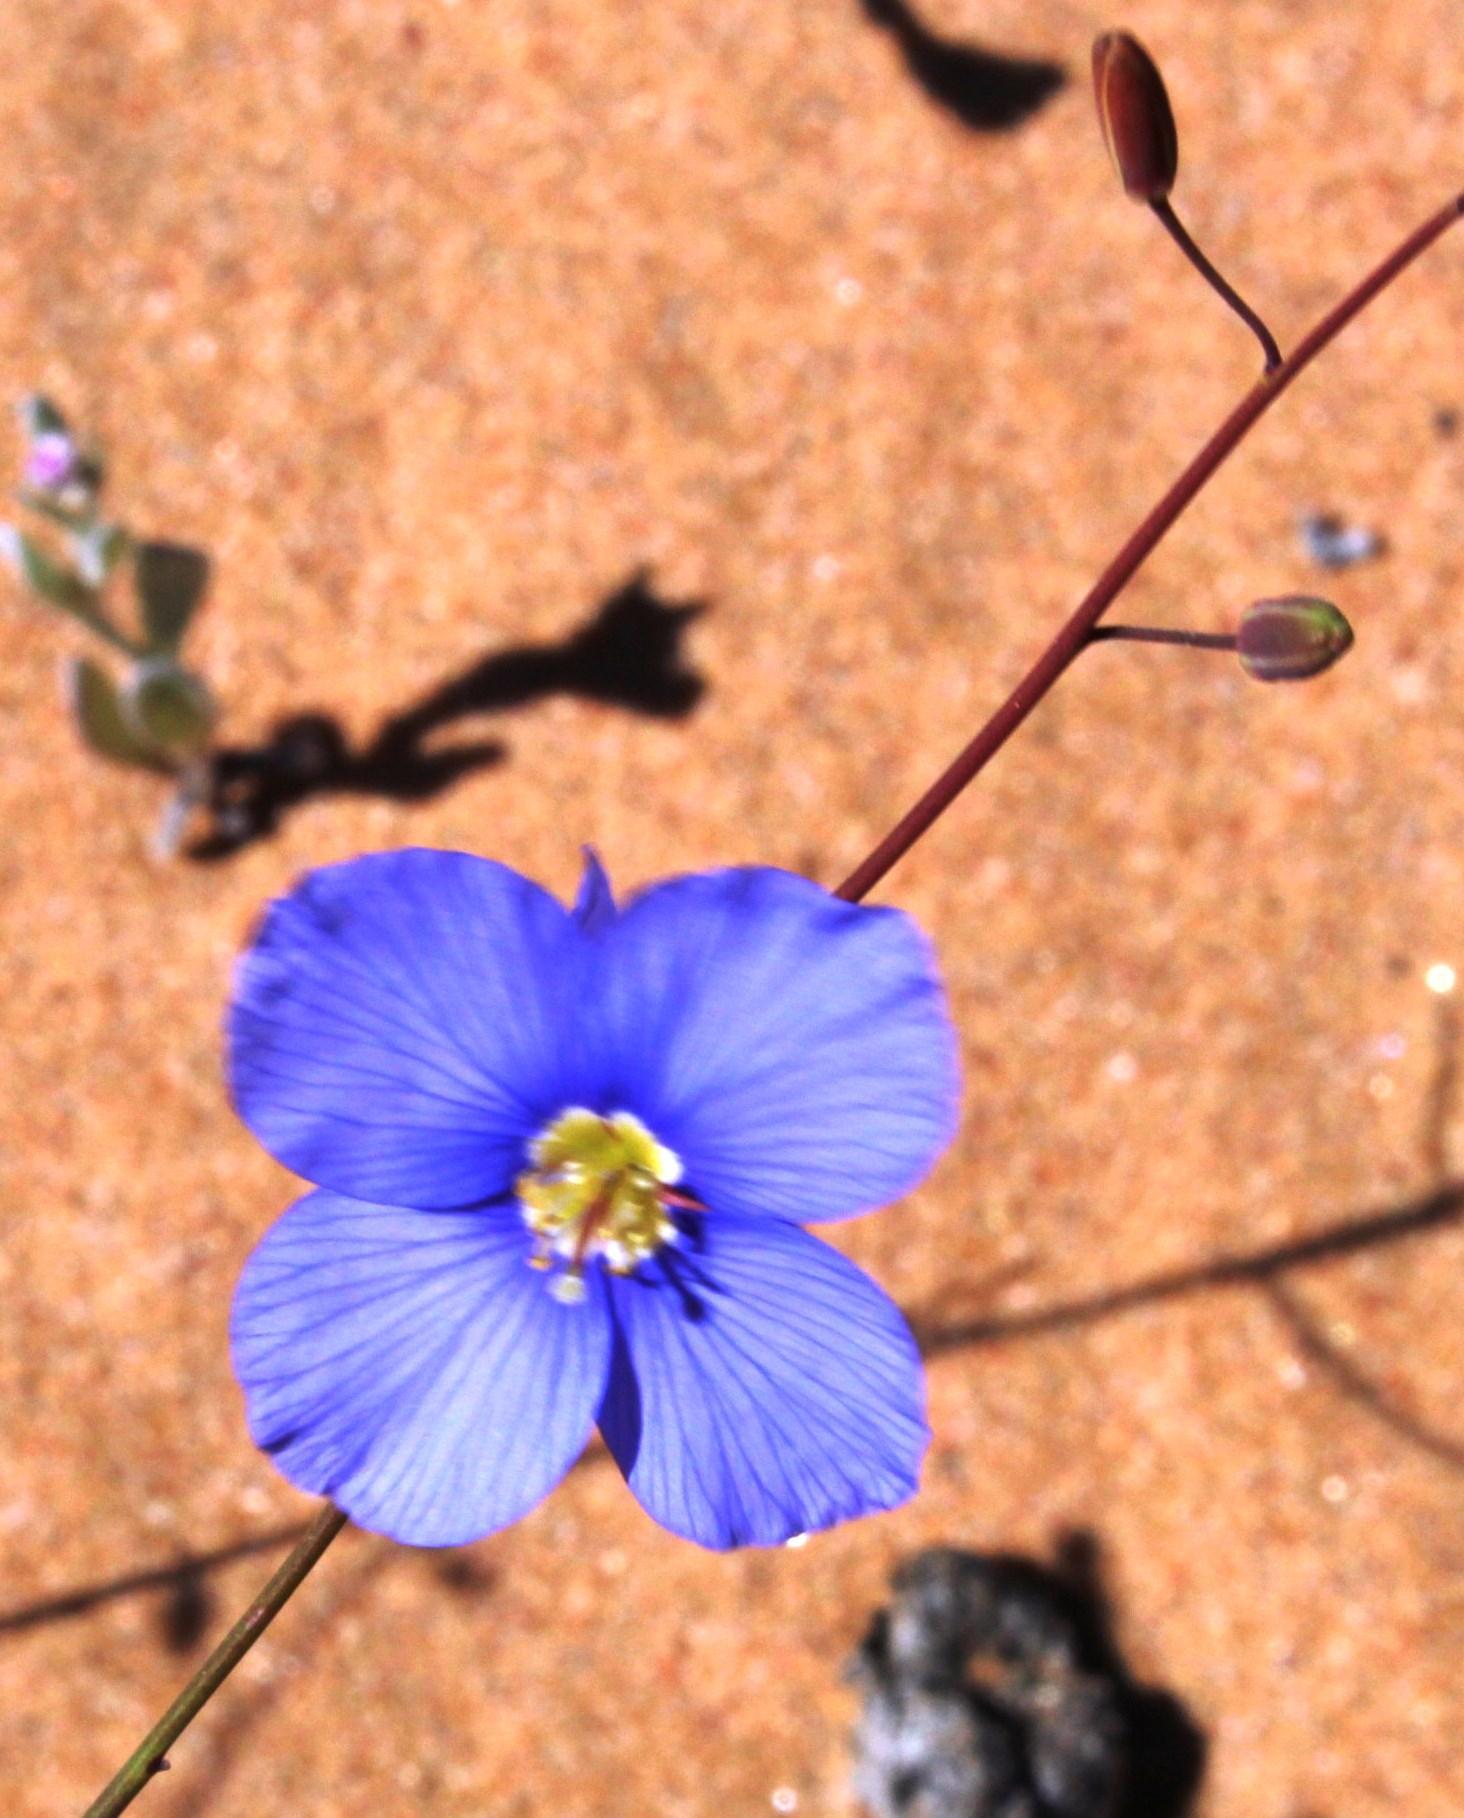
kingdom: Plantae
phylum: Tracheophyta
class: Magnoliopsida
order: Brassicales
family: Brassicaceae
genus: Heliophila
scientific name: Heliophila leptophylla
